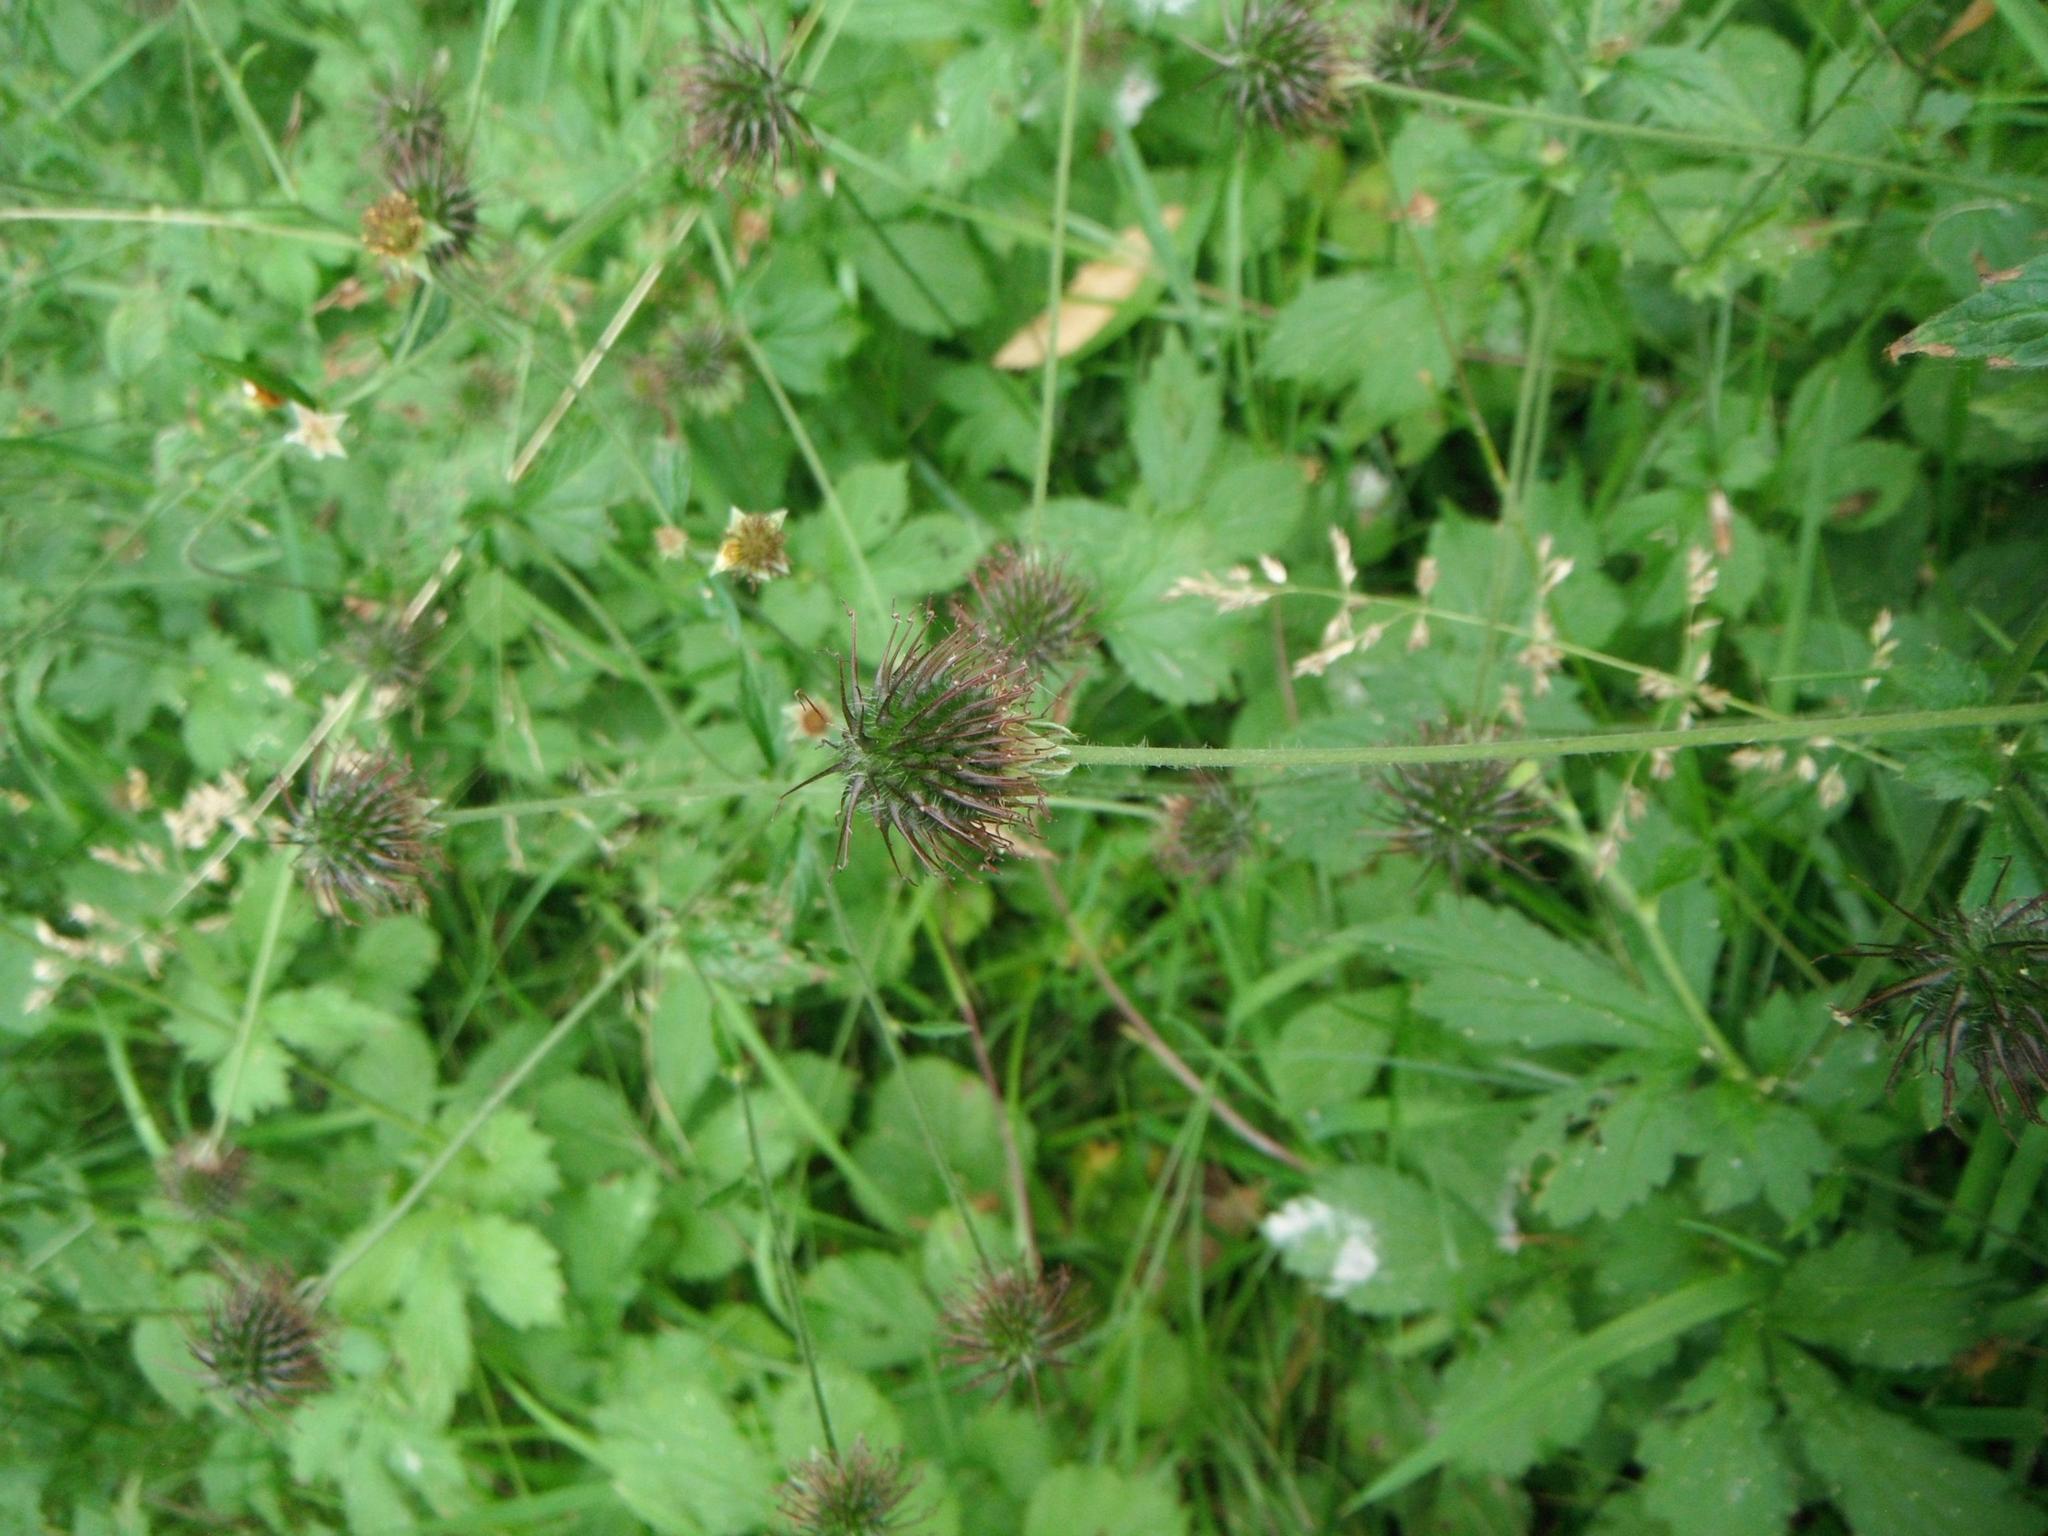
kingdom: Plantae
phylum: Tracheophyta
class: Magnoliopsida
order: Rosales
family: Rosaceae
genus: Geum
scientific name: Geum urbanum
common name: Wood avens
